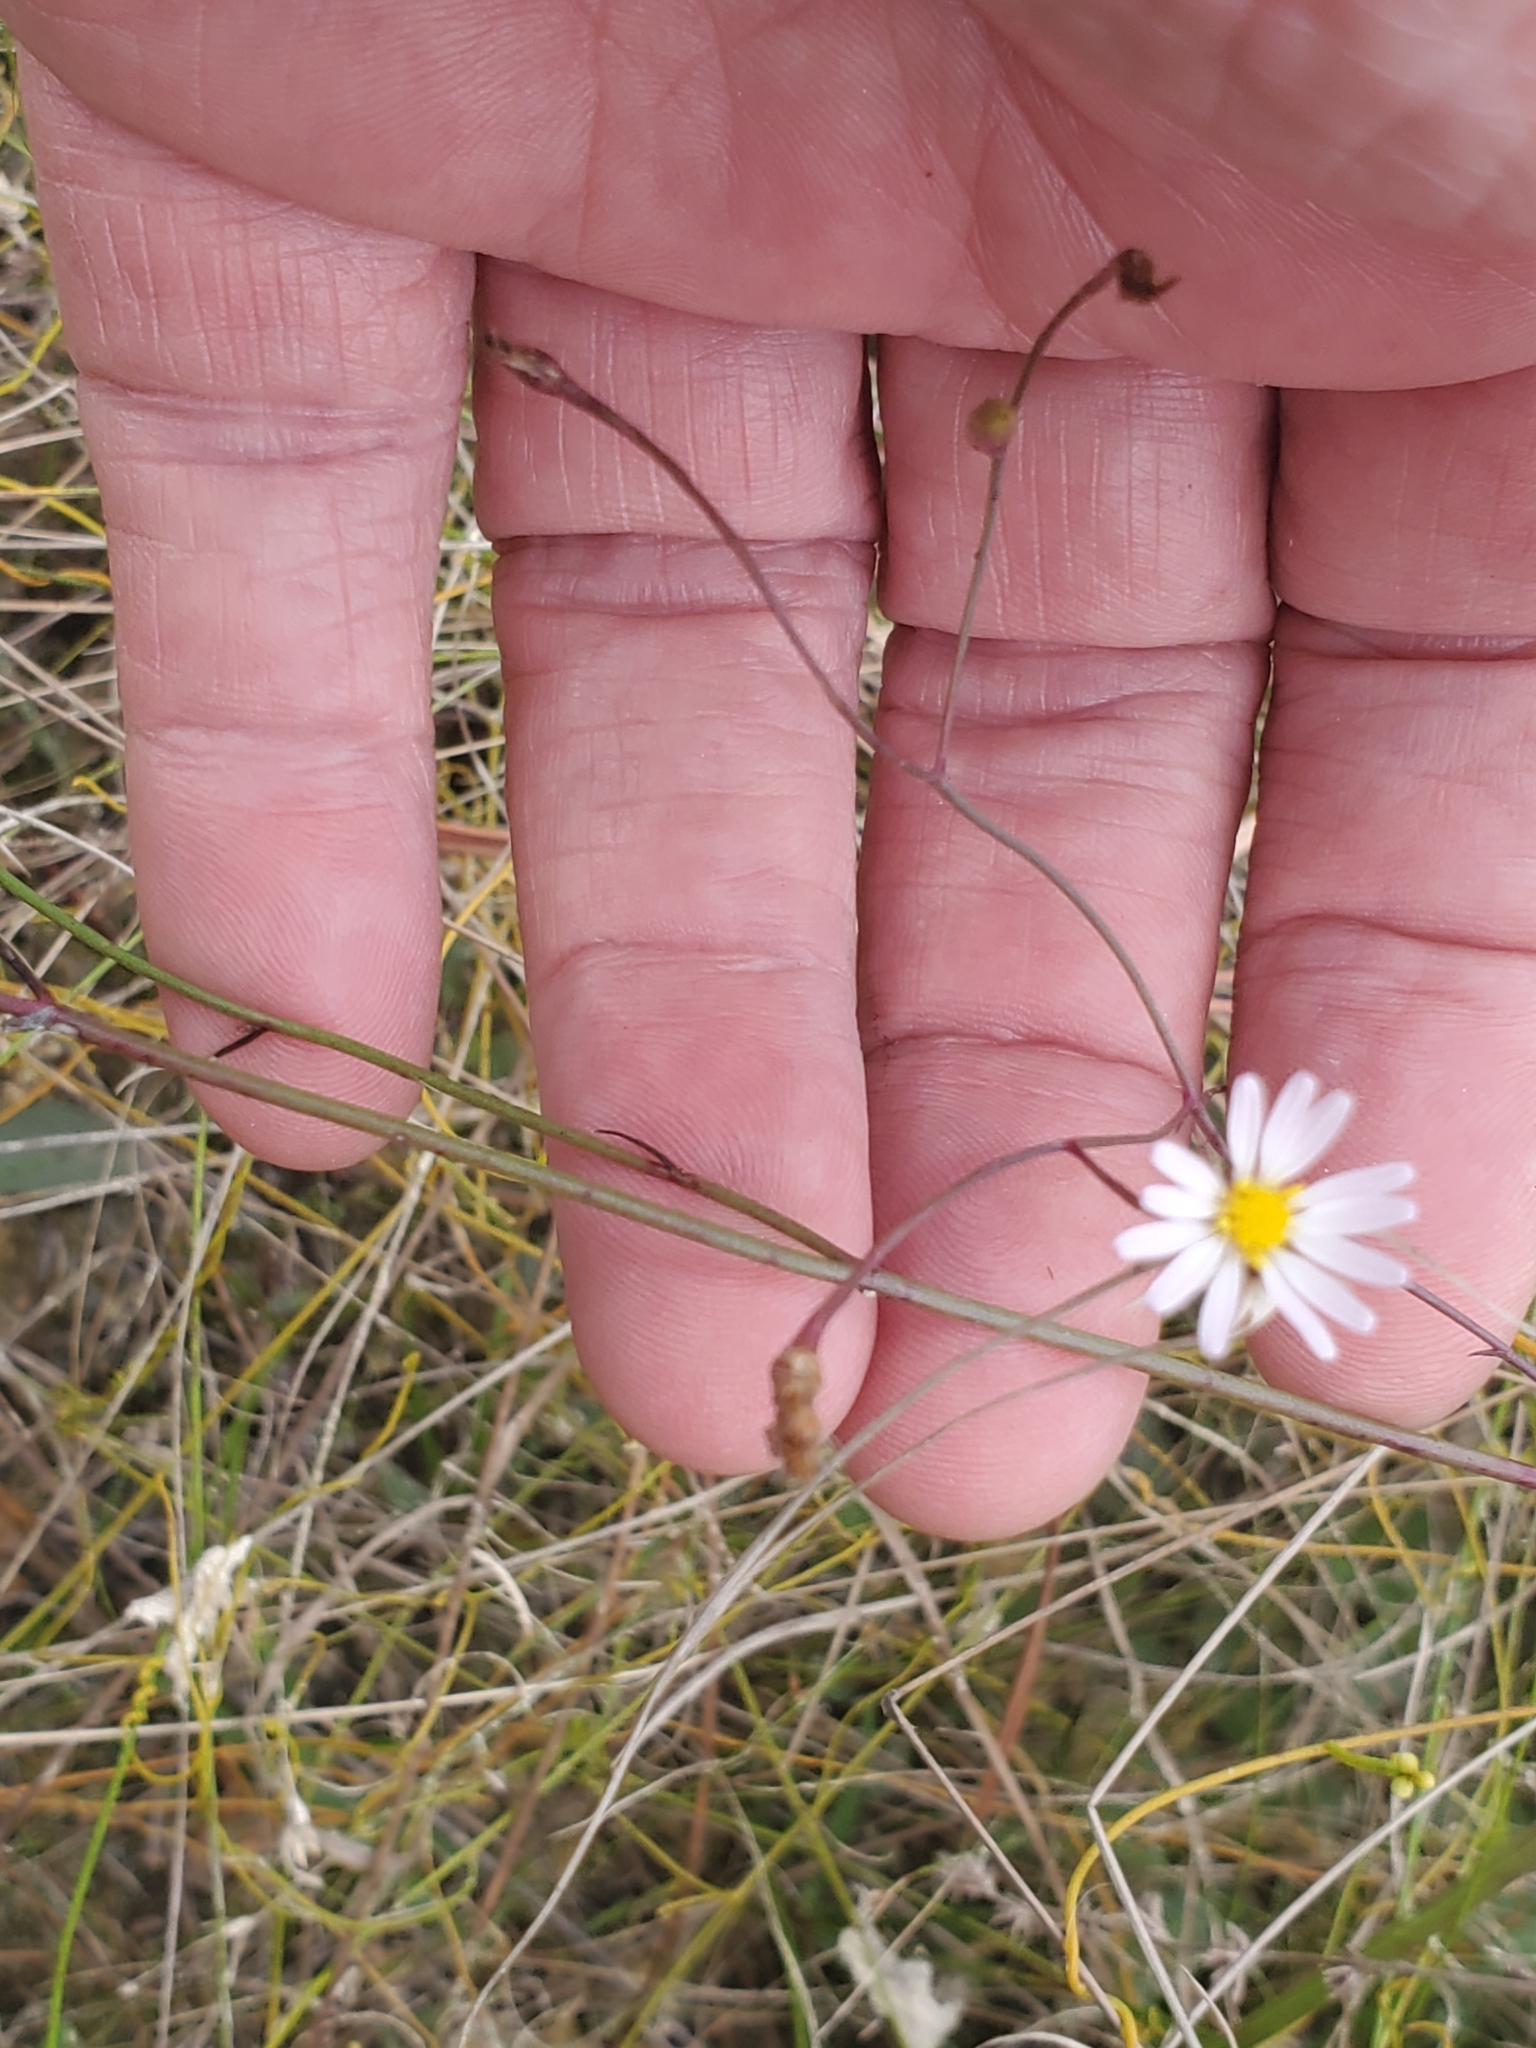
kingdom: Plantae
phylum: Tracheophyta
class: Magnoliopsida
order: Asterales
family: Asteraceae
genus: Symphyotrichum
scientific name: Symphyotrichum tenuifolium
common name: Perennial salt-marsh aster
